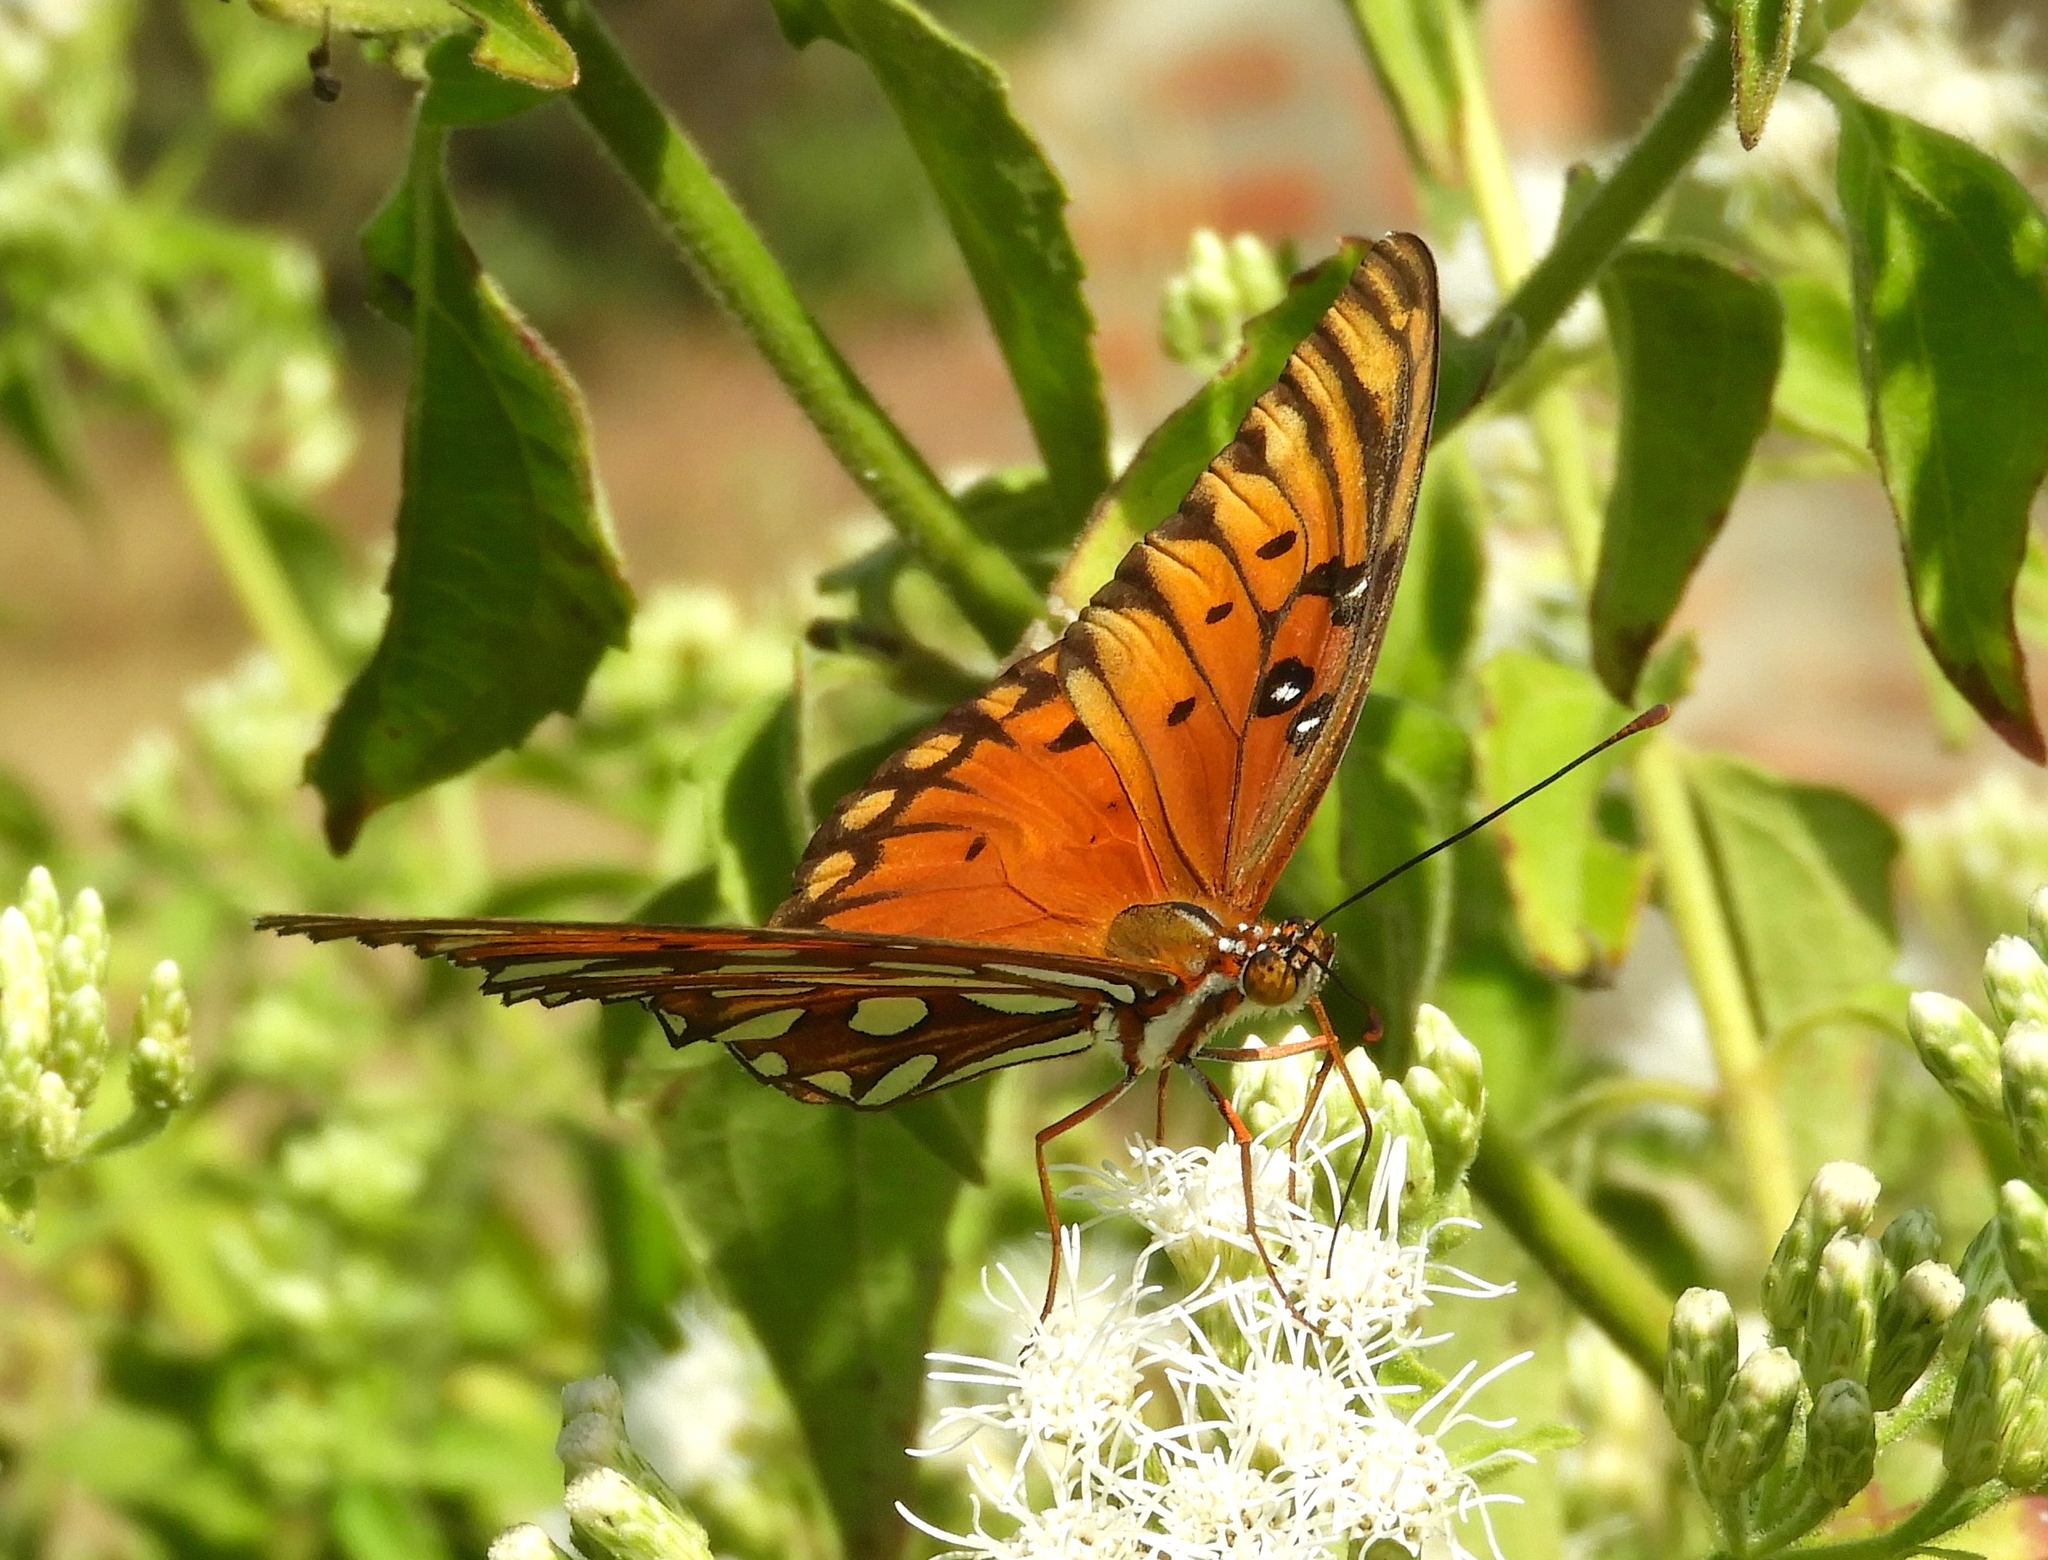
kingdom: Animalia
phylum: Arthropoda
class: Insecta
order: Lepidoptera
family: Nymphalidae
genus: Dione
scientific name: Dione vanillae
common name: Gulf fritillary
